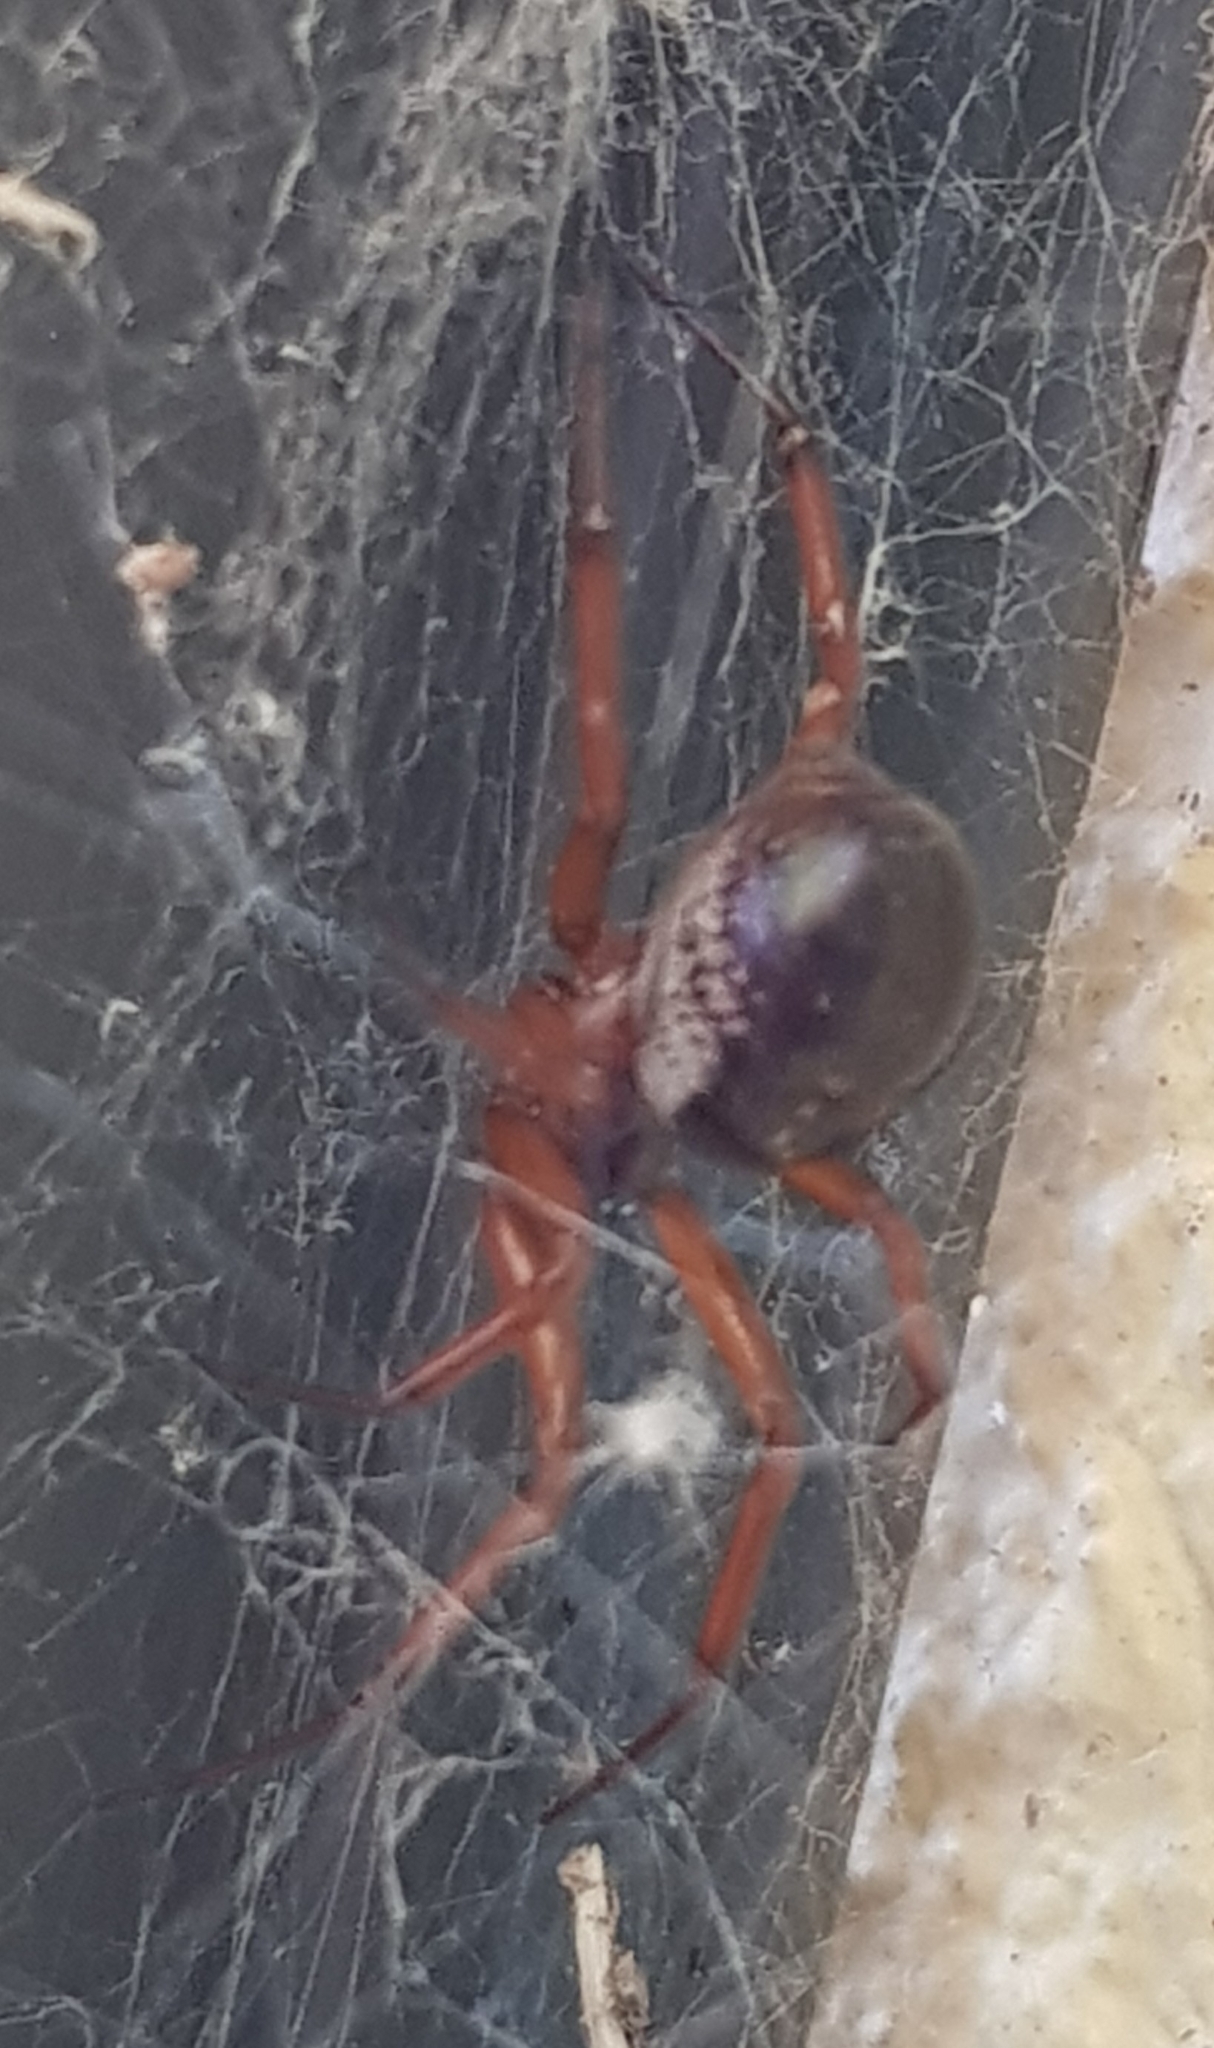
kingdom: Animalia
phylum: Arthropoda
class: Arachnida
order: Araneae
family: Theridiidae
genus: Steatoda
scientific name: Steatoda nobilis
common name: Cobweb weaver
